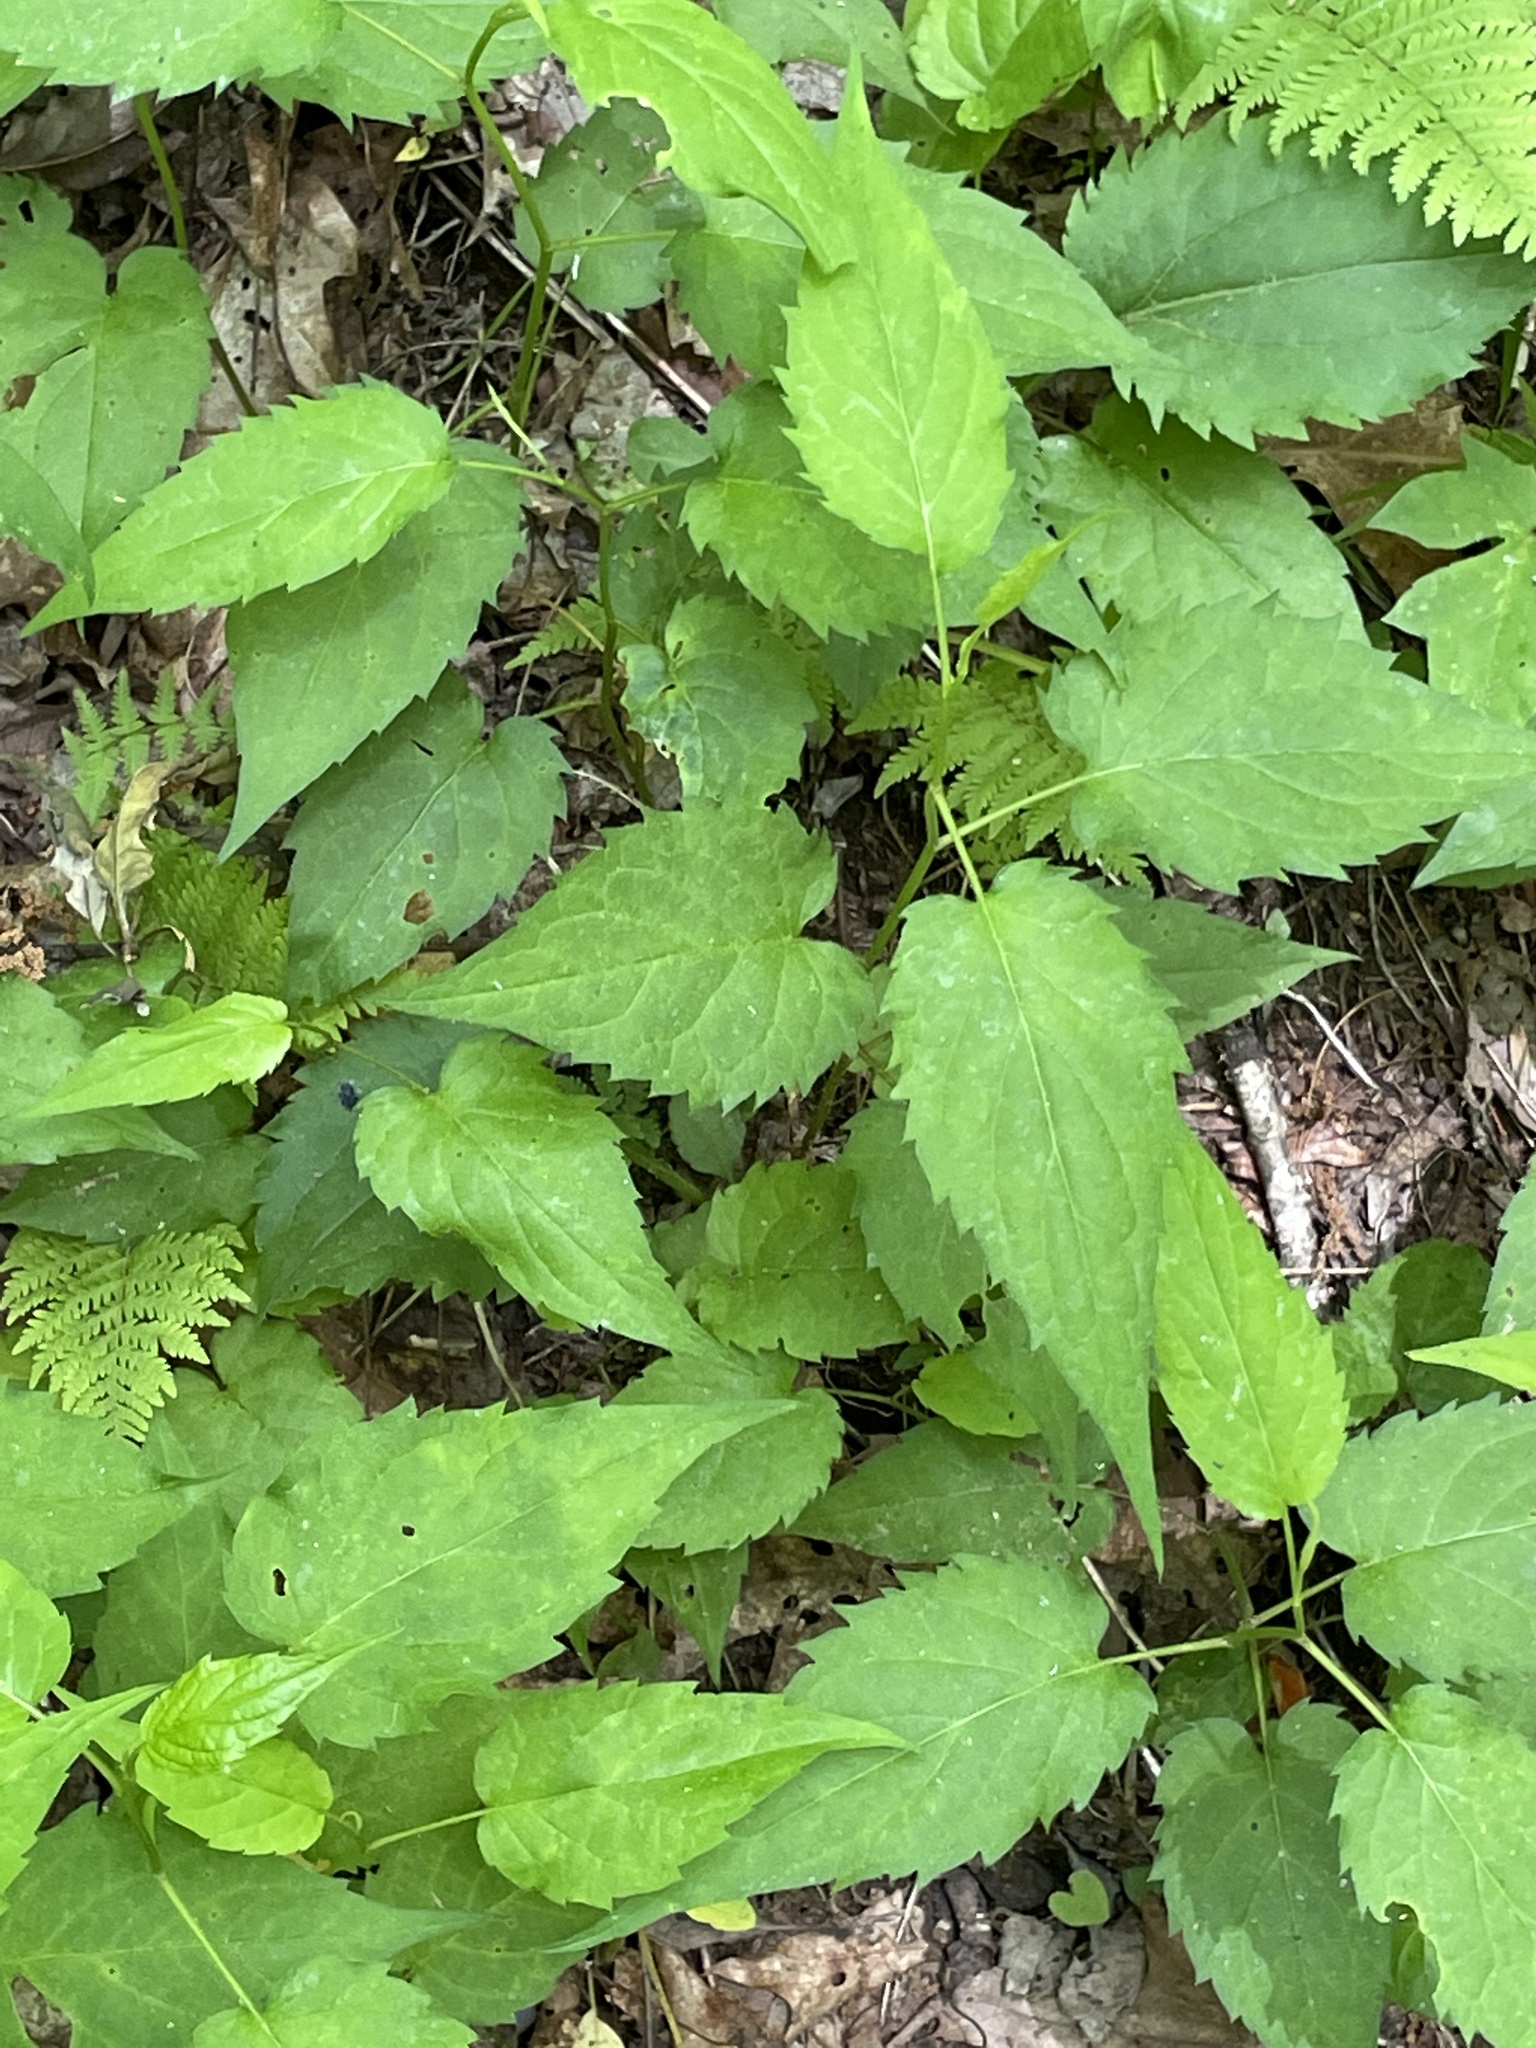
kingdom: Plantae
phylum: Tracheophyta
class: Magnoliopsida
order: Asterales
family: Asteraceae
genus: Eurybia
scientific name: Eurybia divaricata
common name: White wood aster
